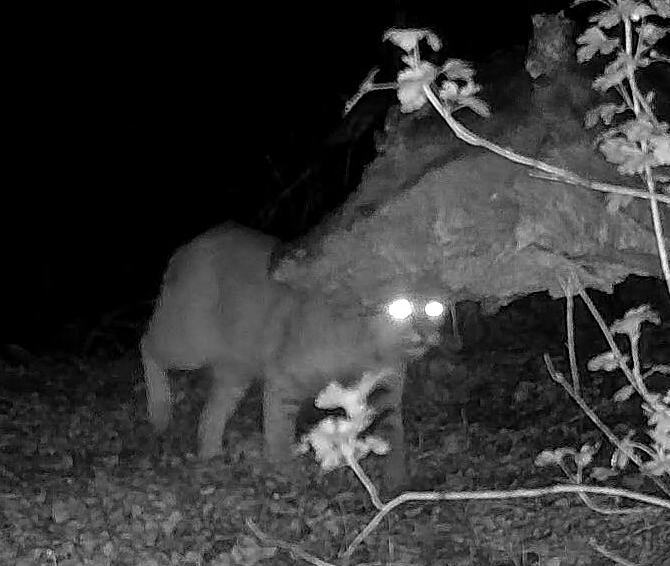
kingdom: Animalia
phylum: Chordata
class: Mammalia
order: Carnivora
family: Felidae
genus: Lynx
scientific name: Lynx rufus
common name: Bobcat
